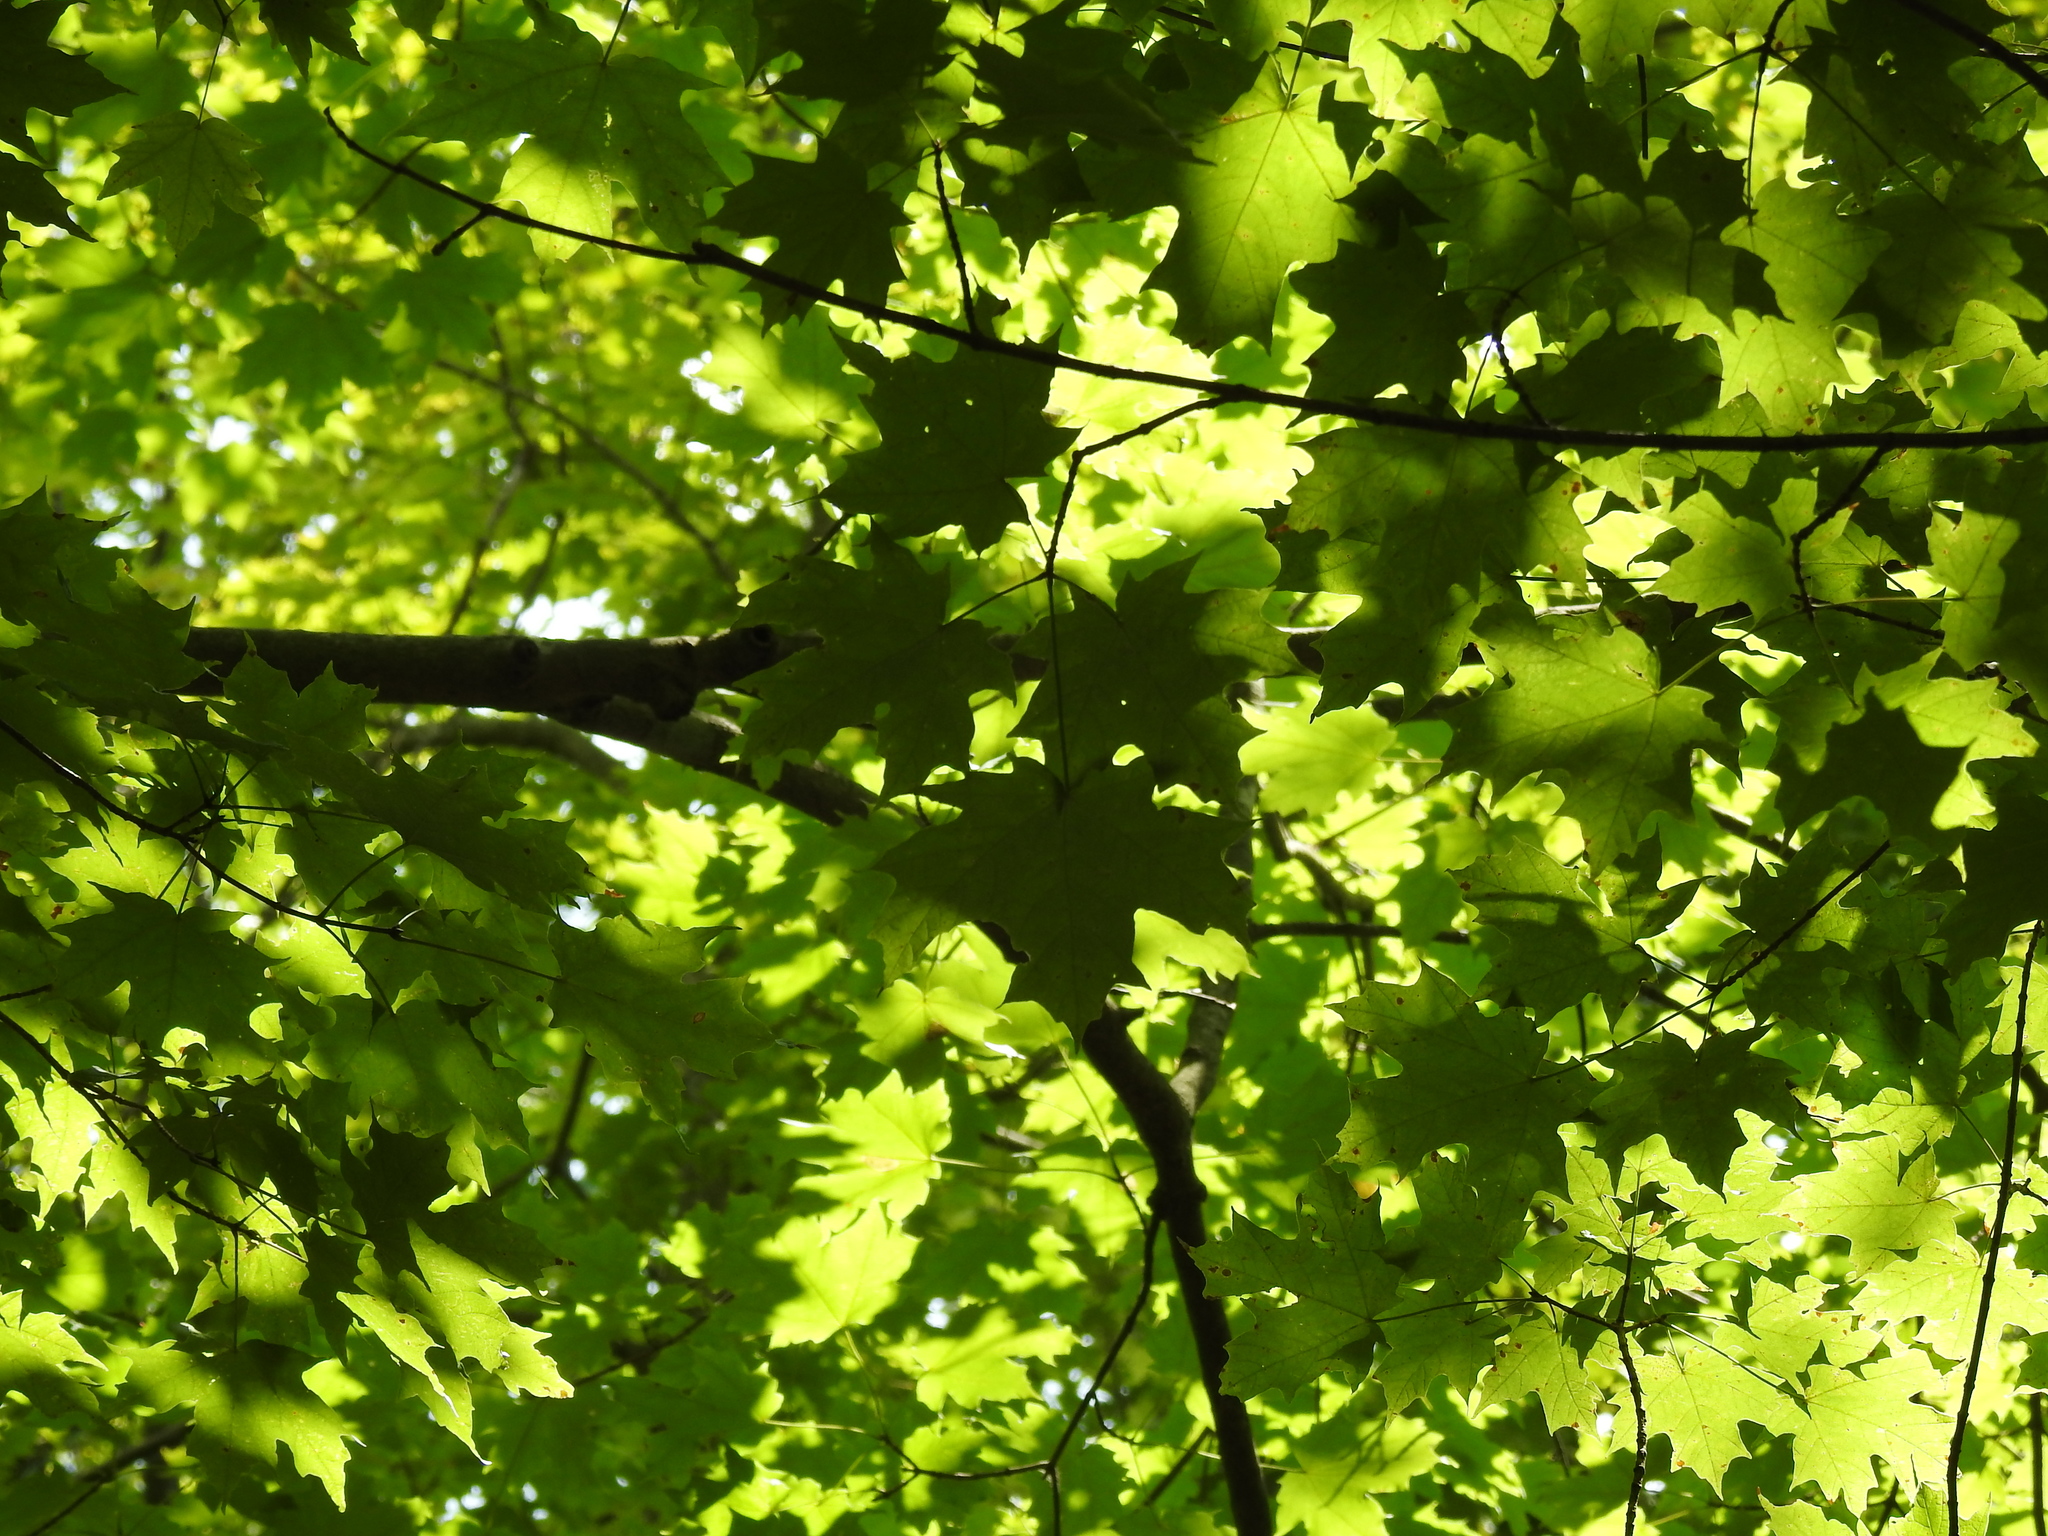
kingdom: Plantae
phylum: Tracheophyta
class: Magnoliopsida
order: Sapindales
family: Sapindaceae
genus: Acer
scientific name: Acer saccharum
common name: Sugar maple
